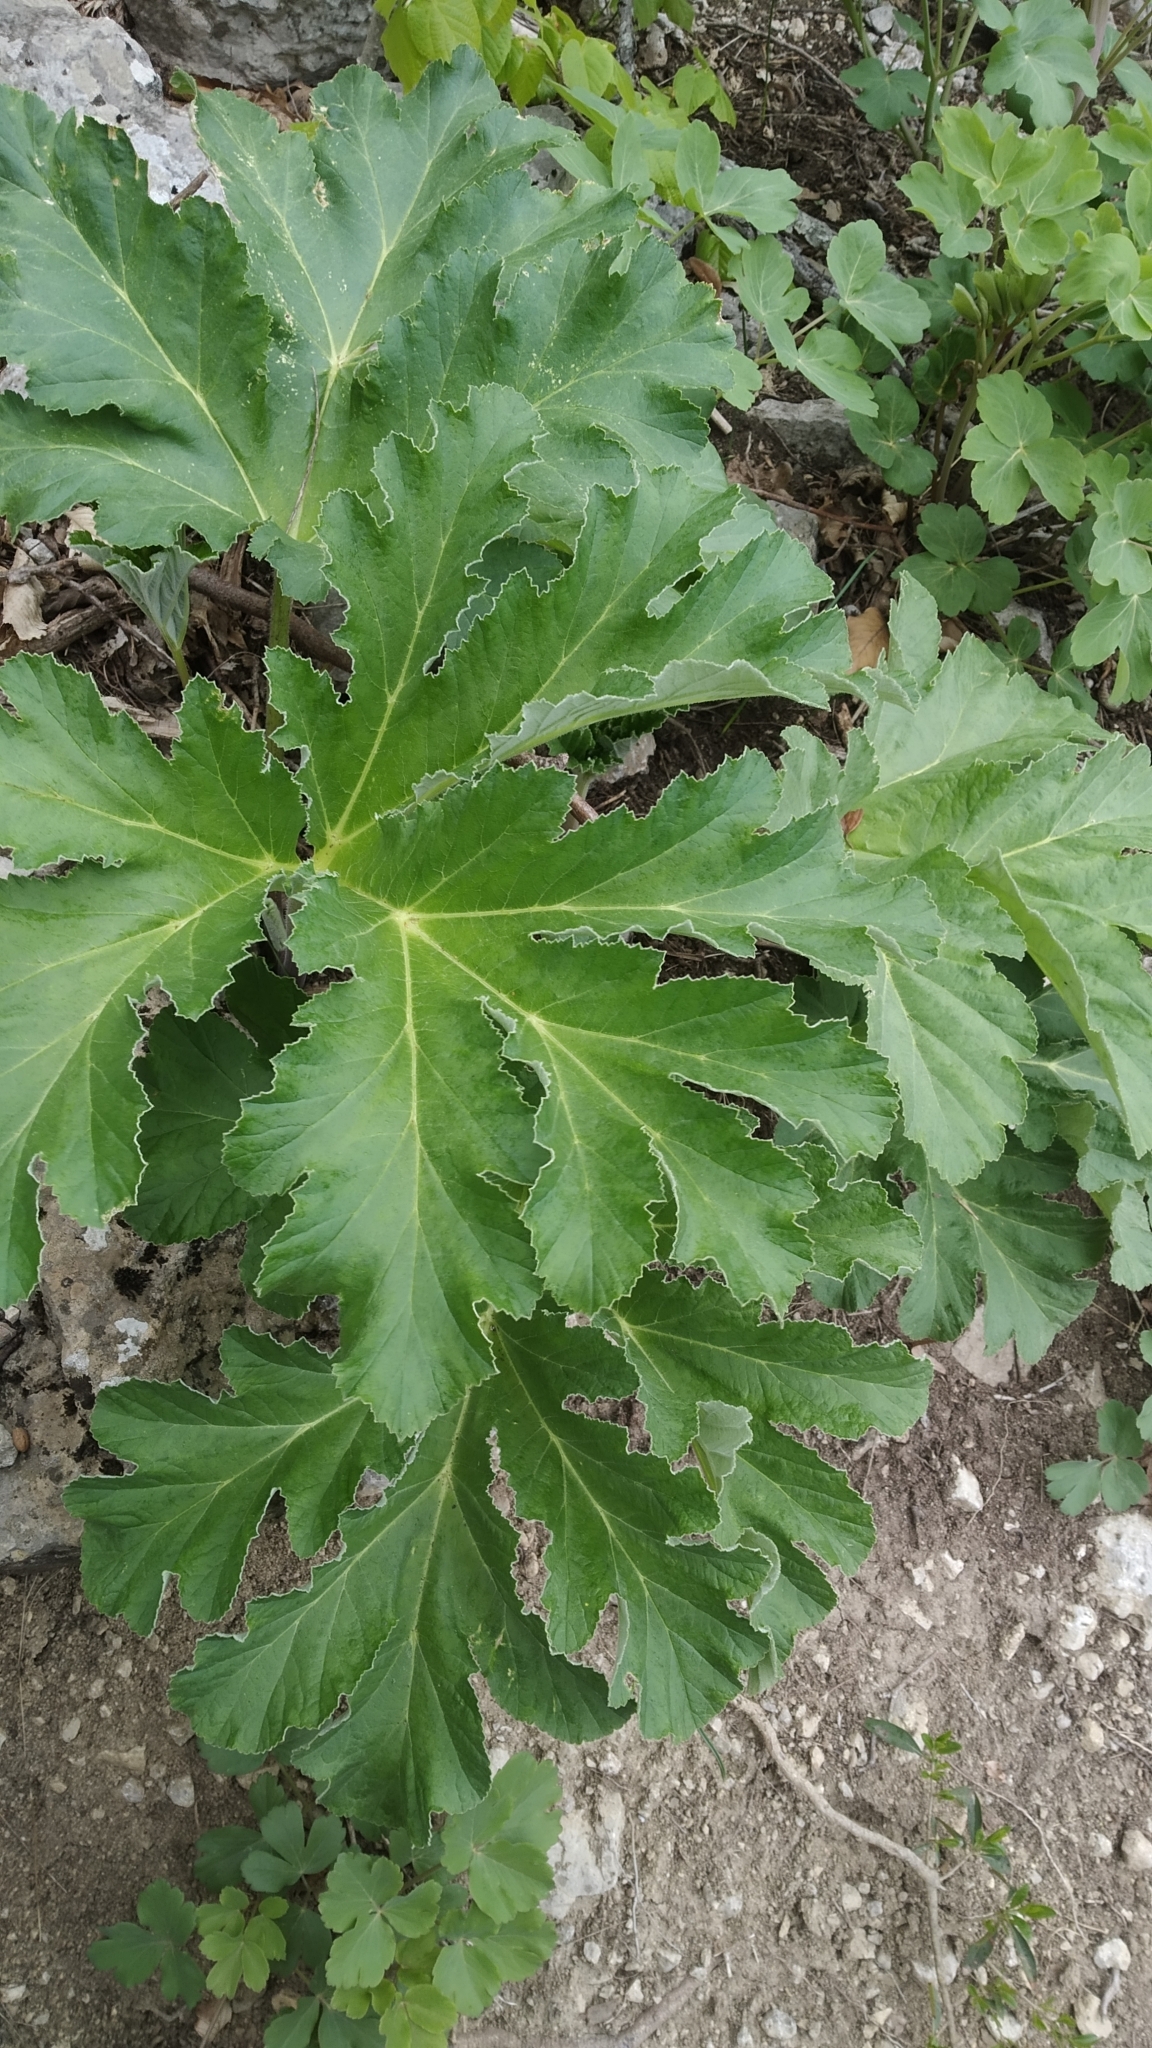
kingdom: Plantae
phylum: Tracheophyta
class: Magnoliopsida
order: Apiales
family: Apiaceae
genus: Heracleum
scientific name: Heracleum stevenii
